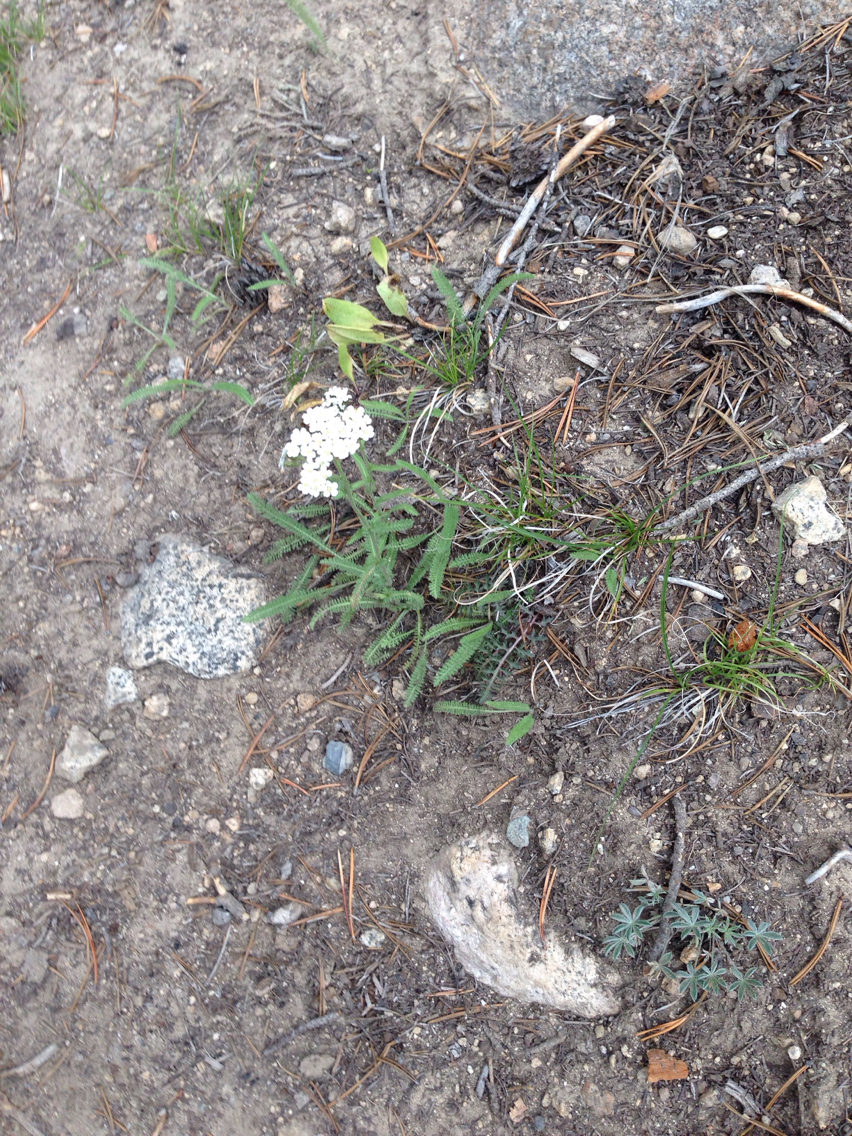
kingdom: Plantae
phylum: Tracheophyta
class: Magnoliopsida
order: Asterales
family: Asteraceae
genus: Achillea
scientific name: Achillea millefolium
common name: Yarrow
